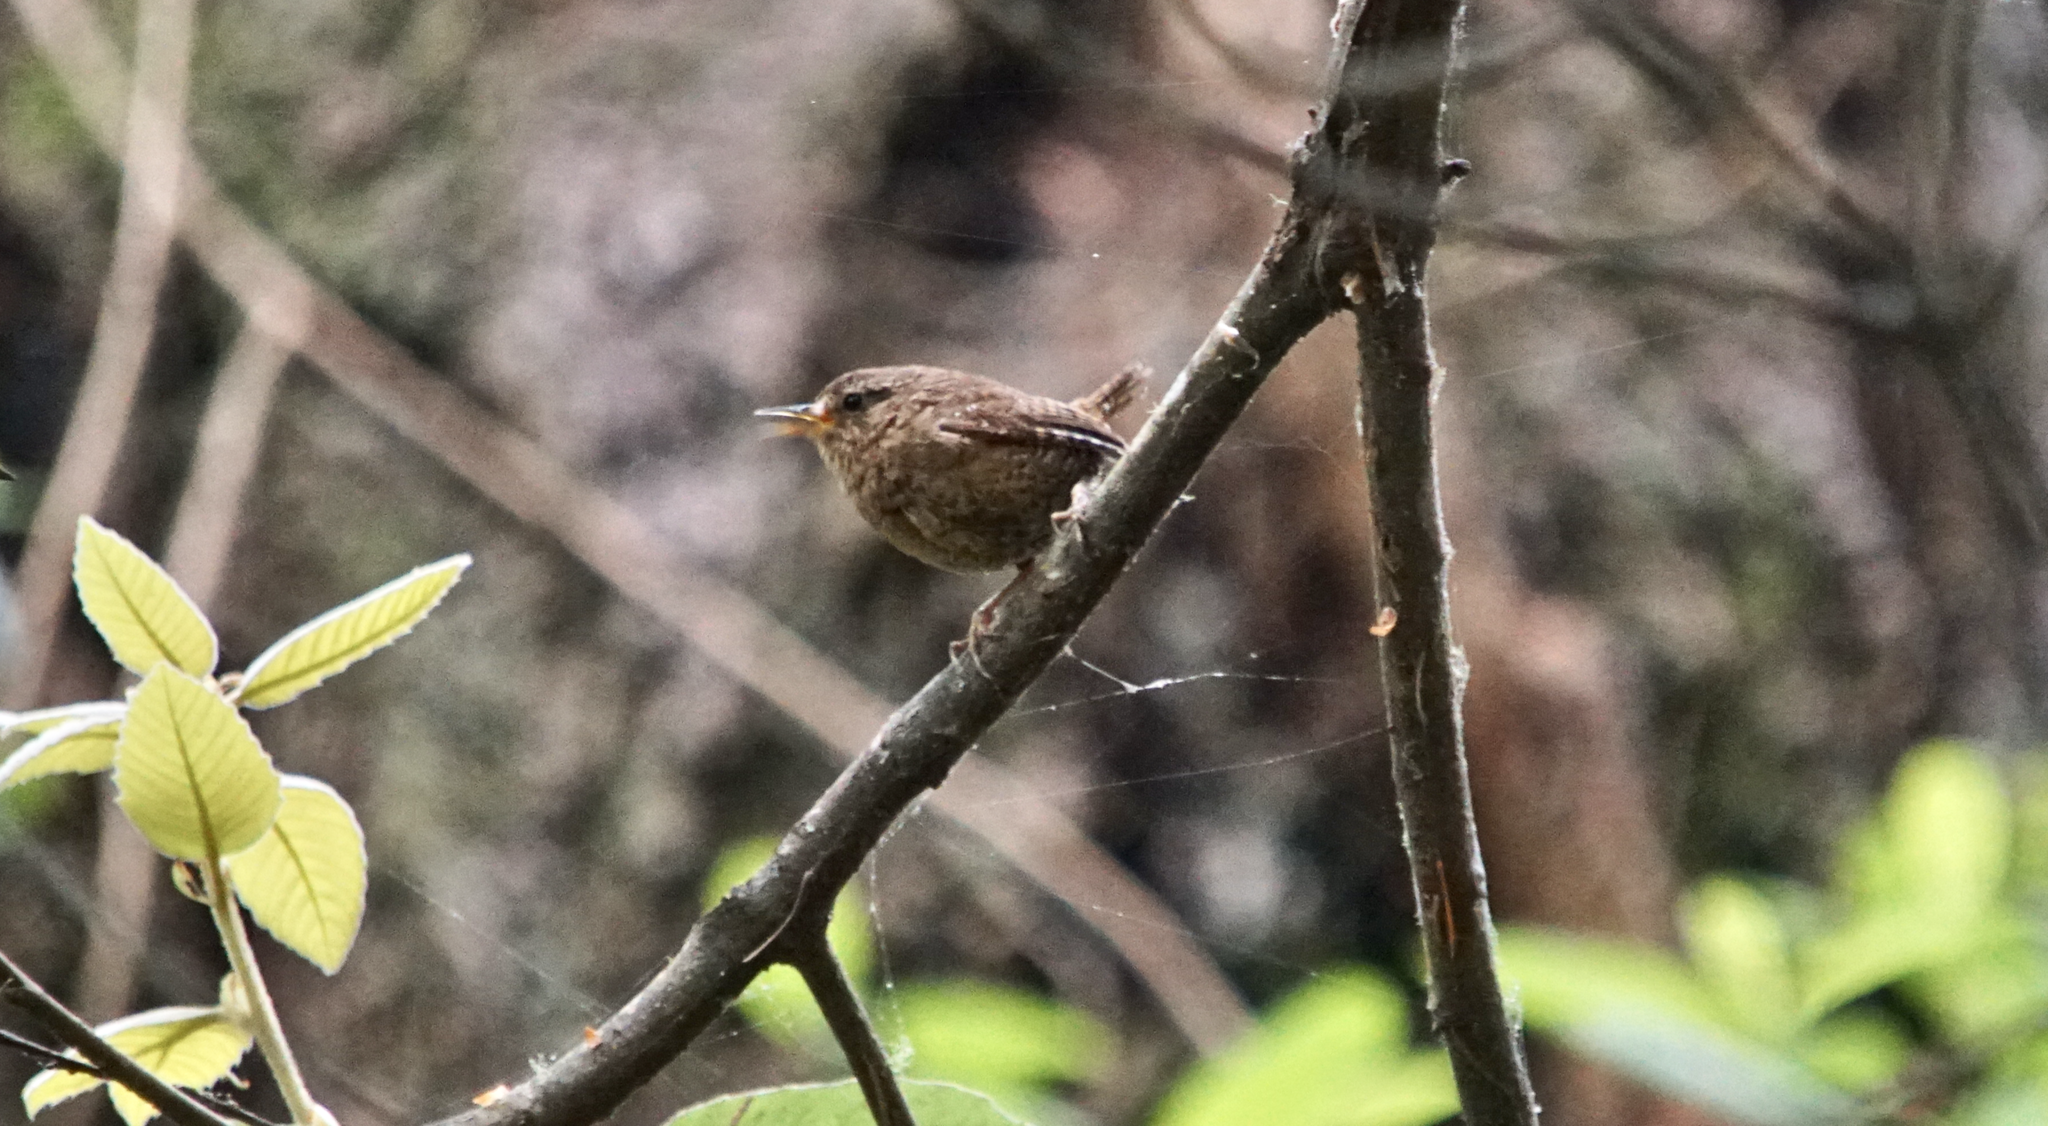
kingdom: Animalia
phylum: Chordata
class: Aves
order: Passeriformes
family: Troglodytidae
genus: Troglodytes
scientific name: Troglodytes pacificus
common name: Pacific wren
